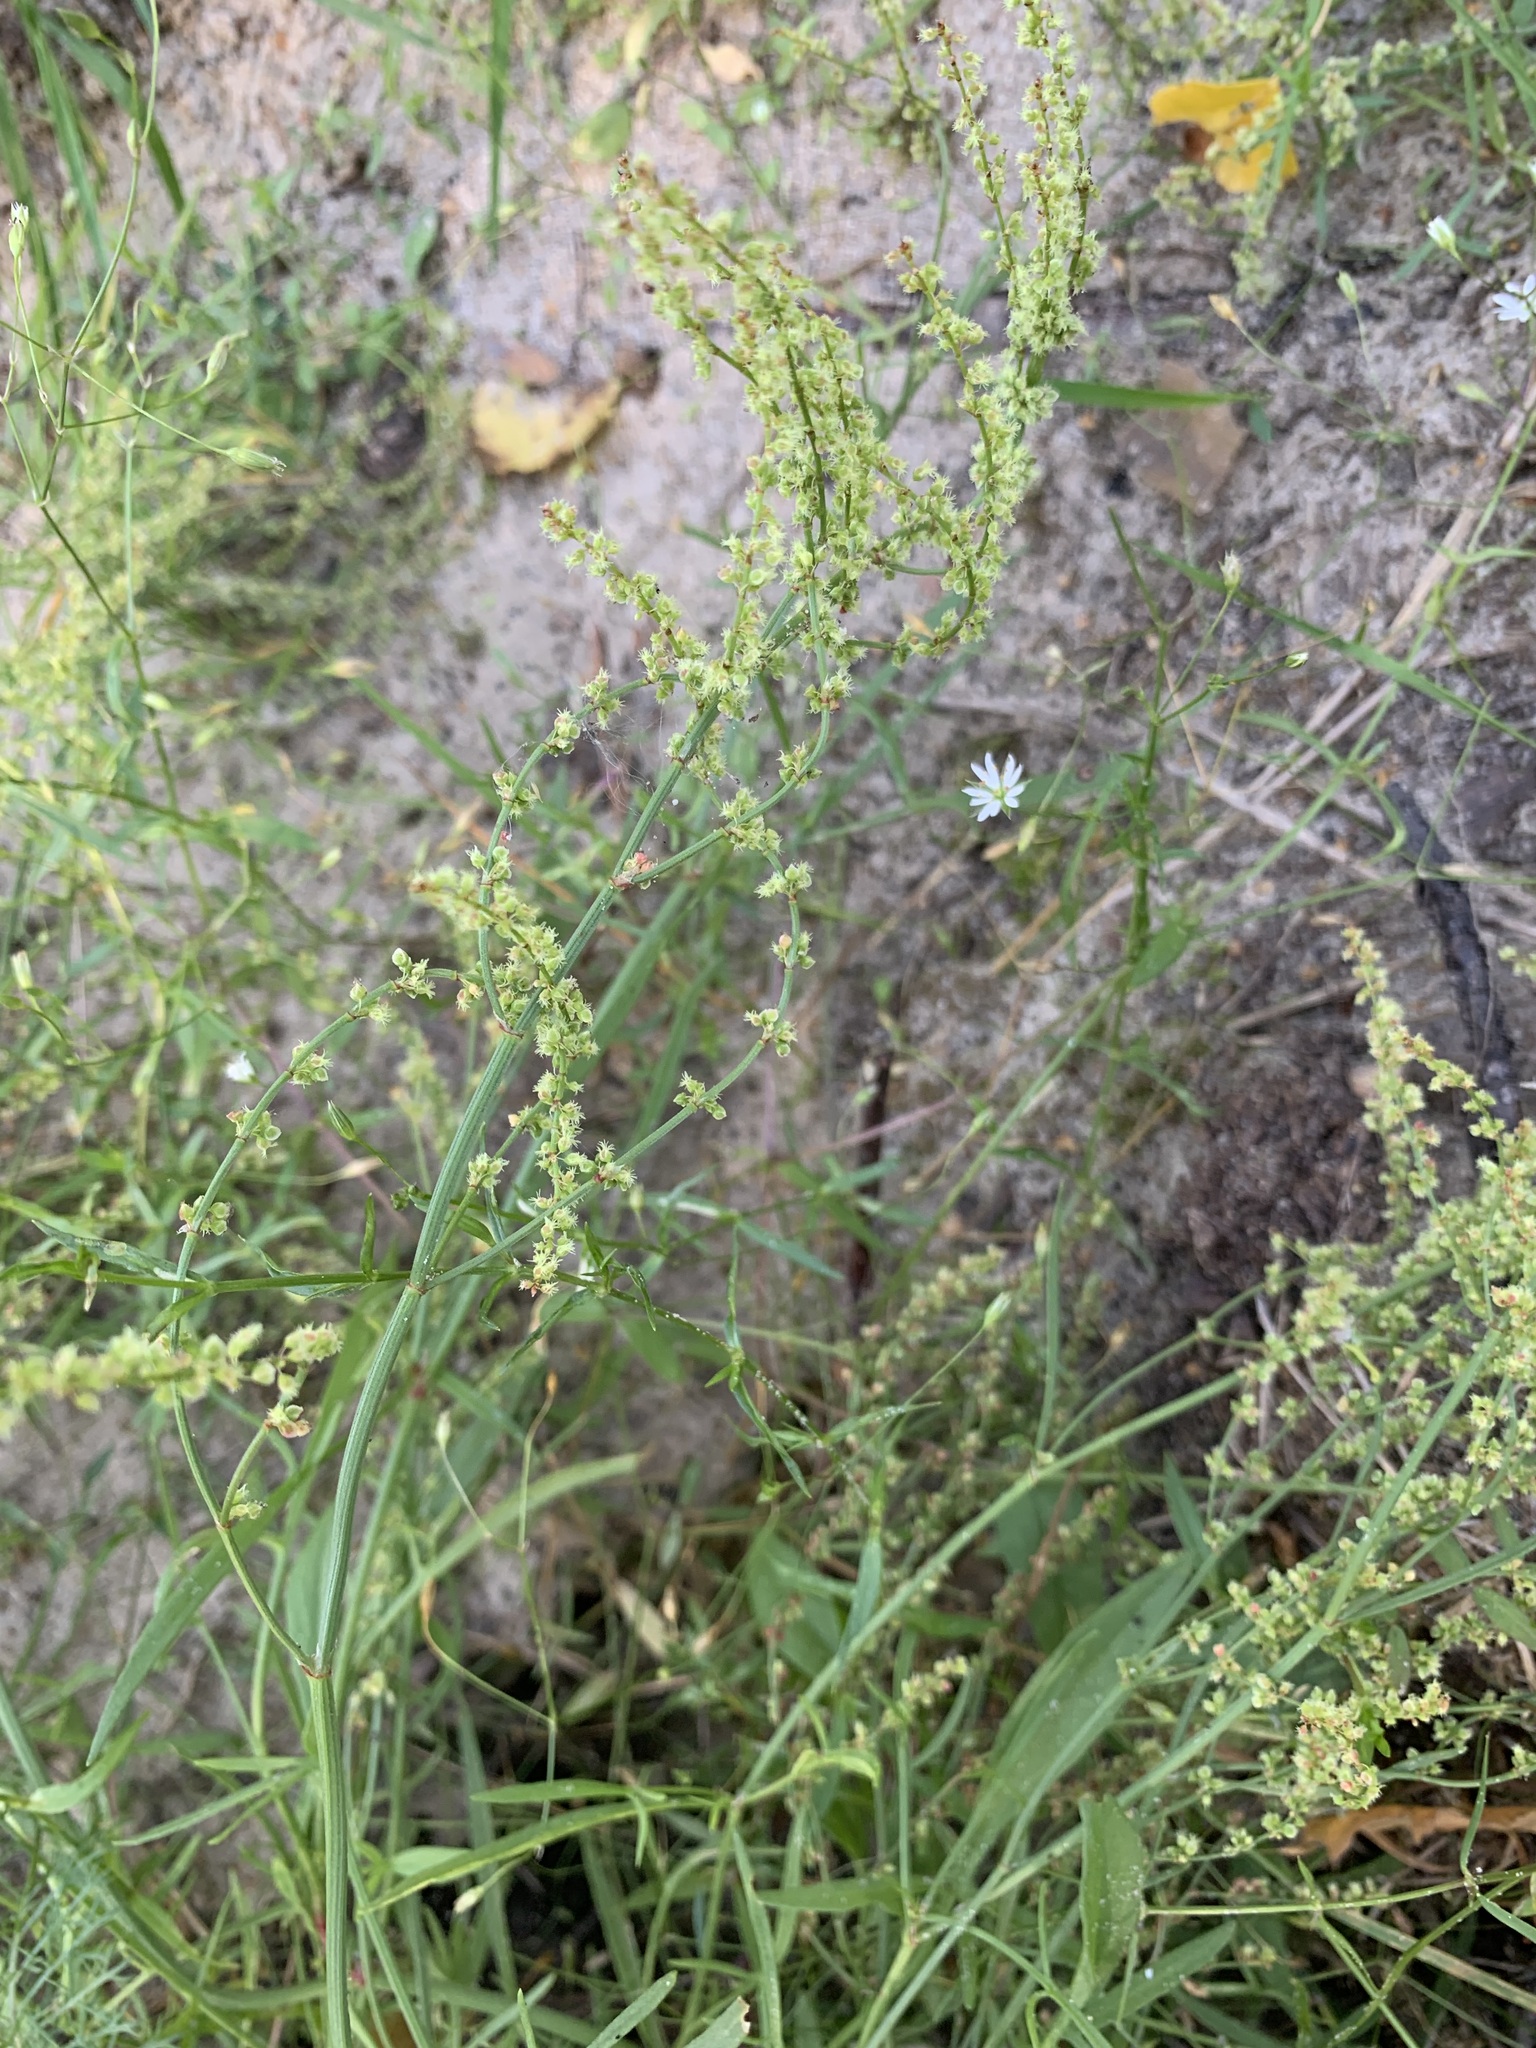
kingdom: Plantae
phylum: Tracheophyta
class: Magnoliopsida
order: Caryophyllales
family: Polygonaceae
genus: Rumex
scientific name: Rumex acetosella
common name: Common sheep sorrel
